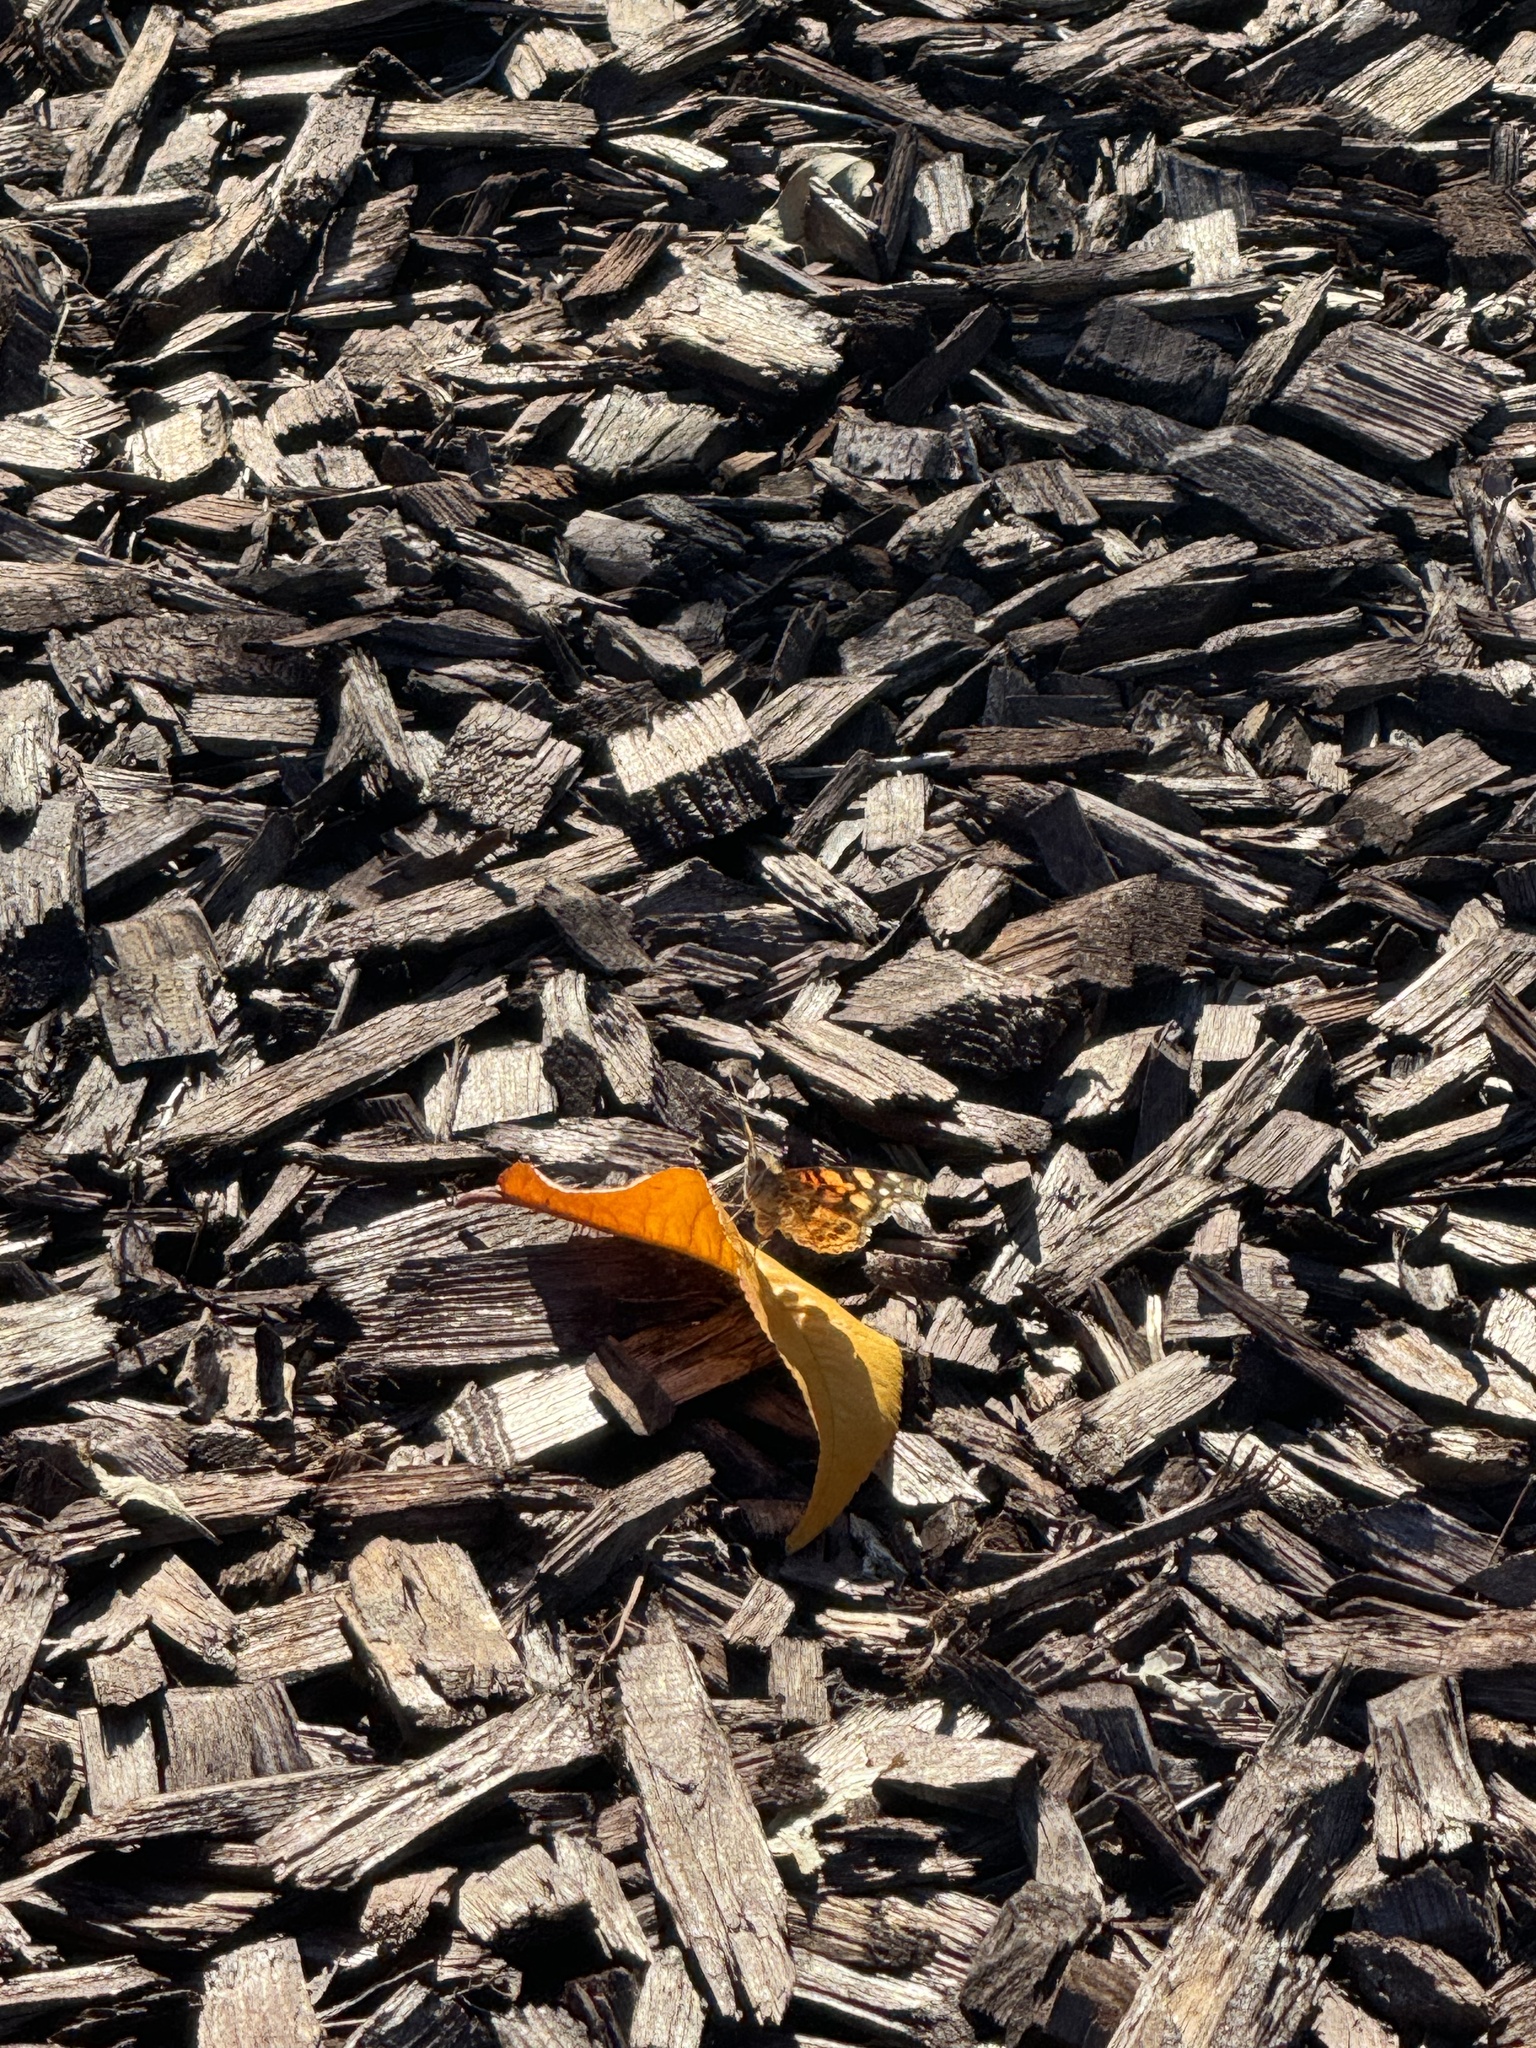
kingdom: Animalia
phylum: Arthropoda
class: Insecta
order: Lepidoptera
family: Nymphalidae
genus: Vanessa
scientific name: Vanessa annabella
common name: West coast lady
